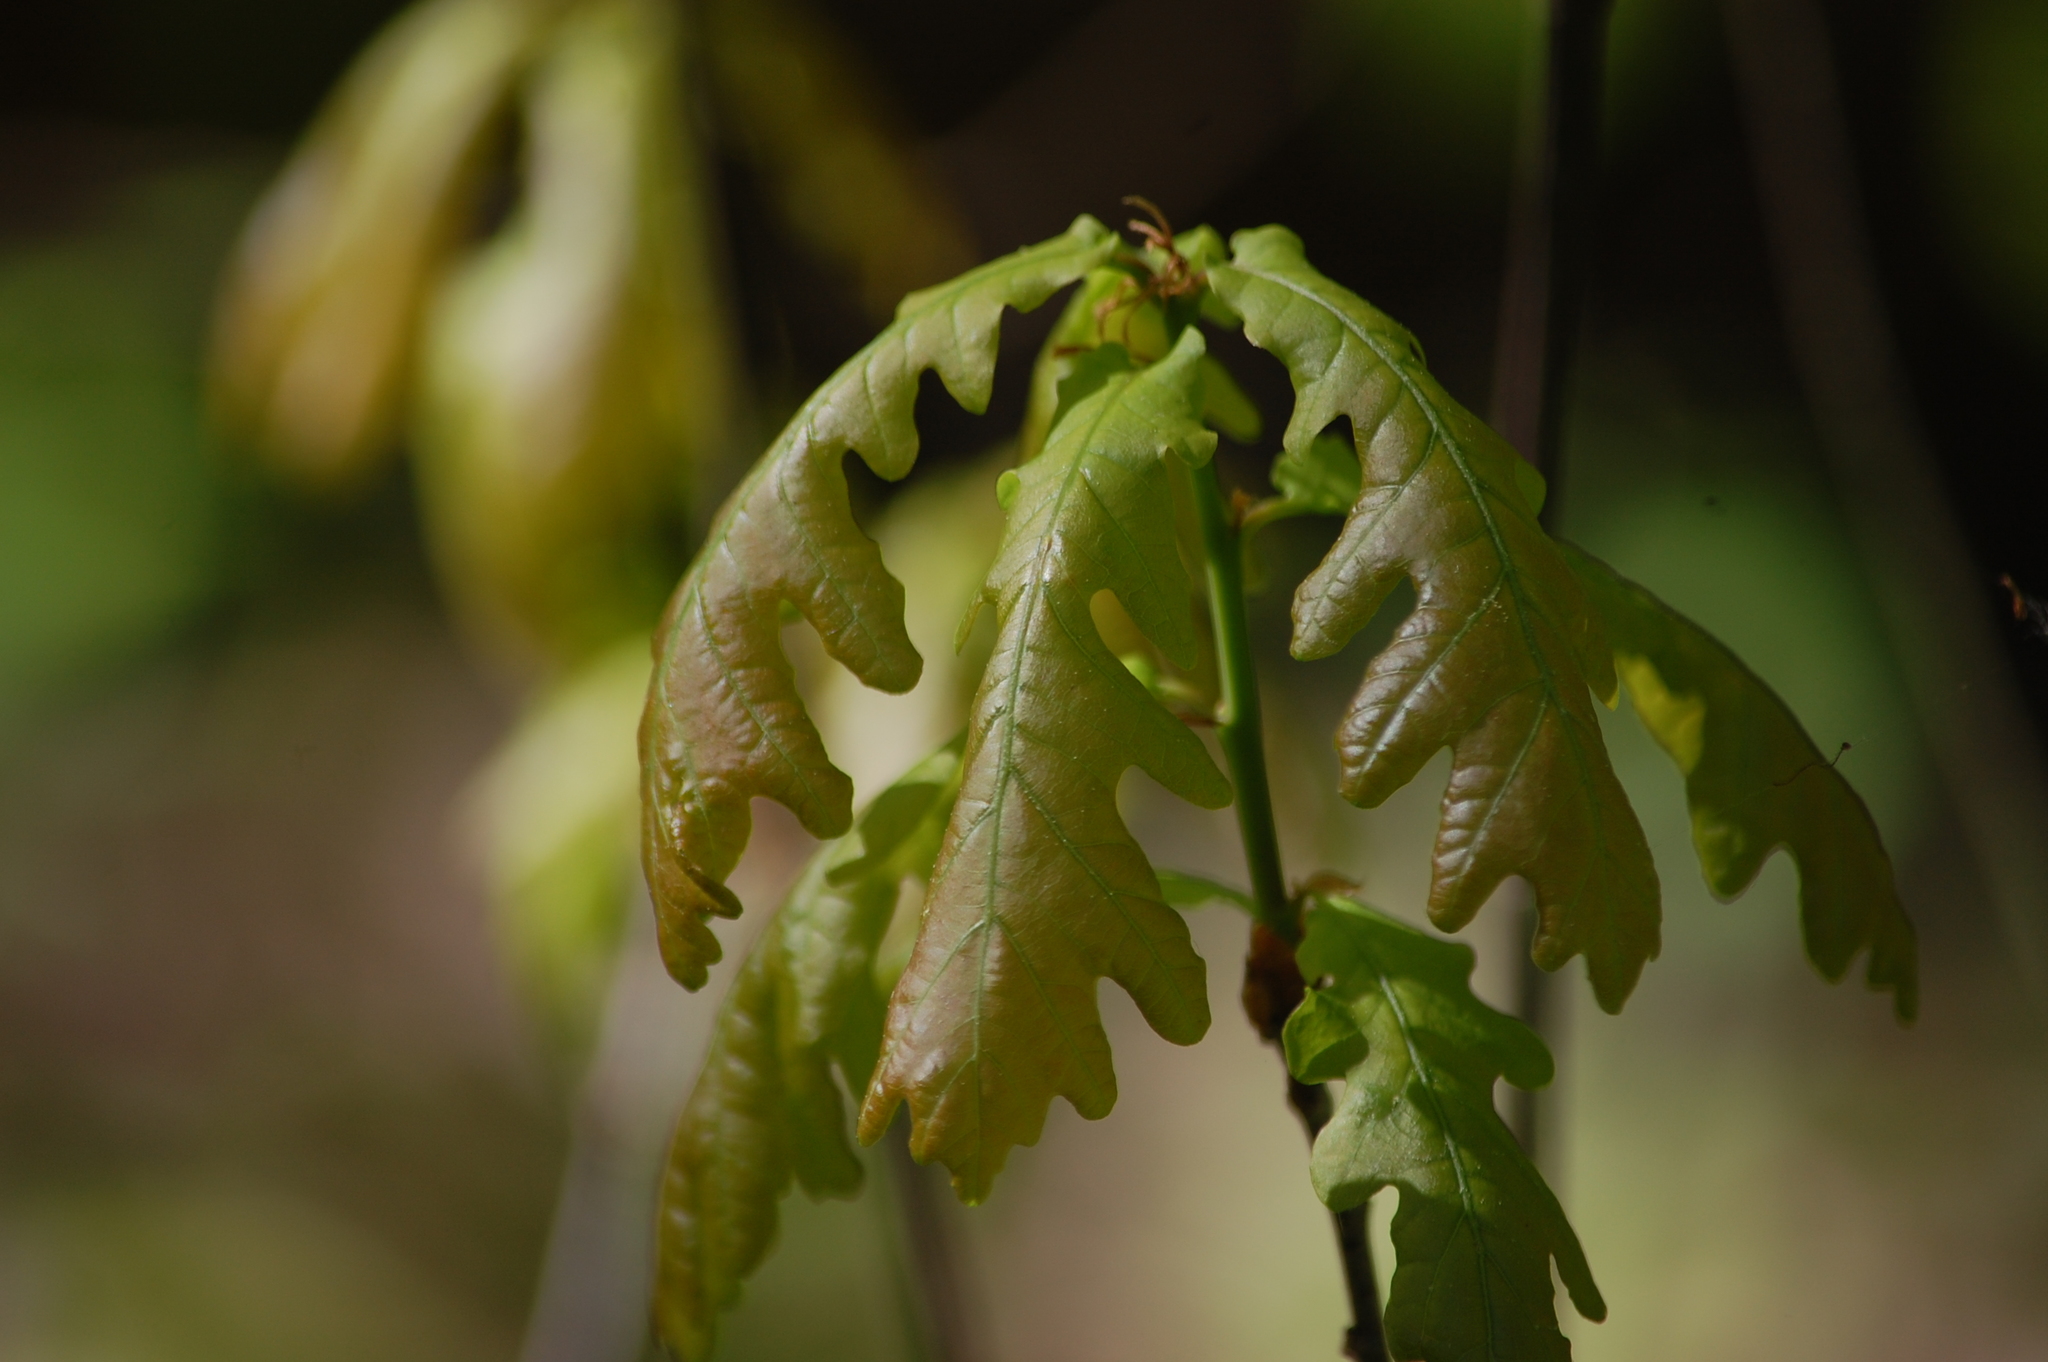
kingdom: Plantae
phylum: Tracheophyta
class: Magnoliopsida
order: Fagales
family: Fagaceae
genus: Quercus
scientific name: Quercus robur
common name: Pedunculate oak
